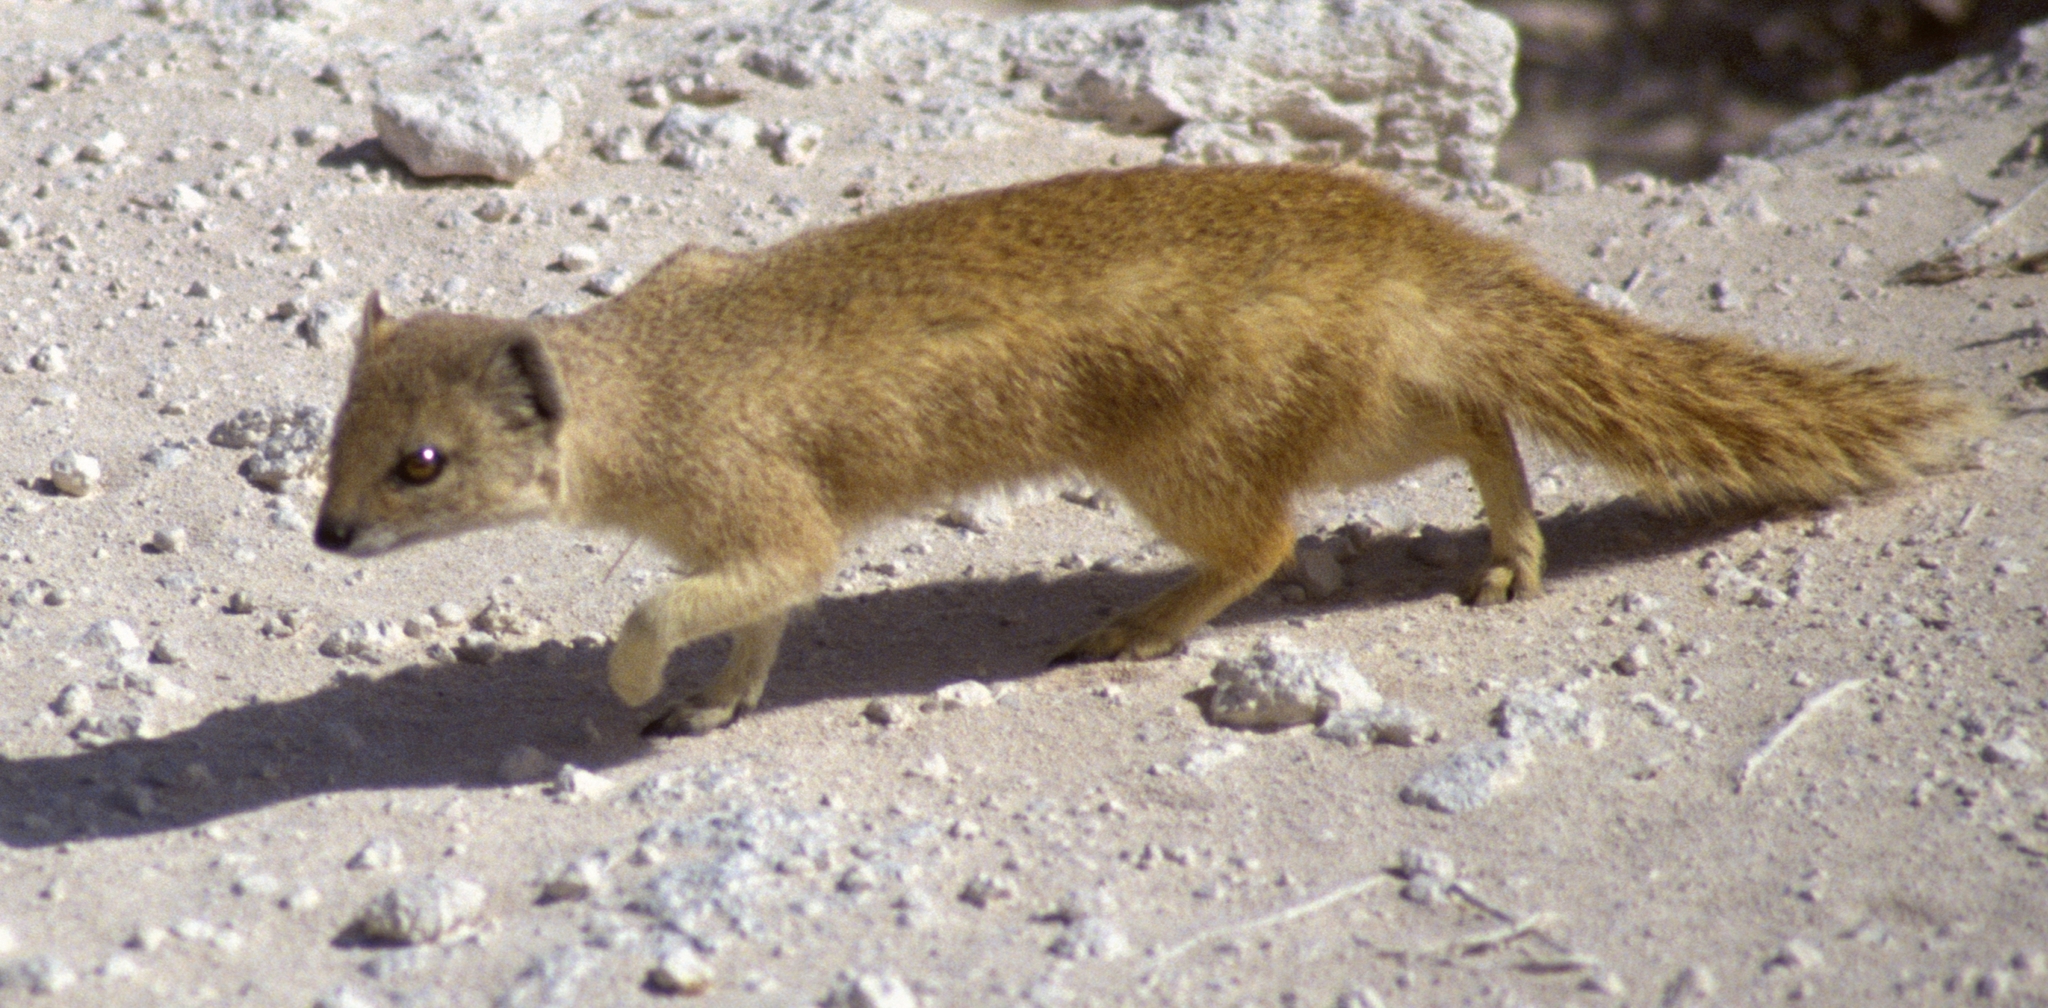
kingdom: Animalia
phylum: Chordata
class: Mammalia
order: Carnivora
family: Herpestidae
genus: Cynictis
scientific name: Cynictis penicillata
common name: Yellow mongoose
